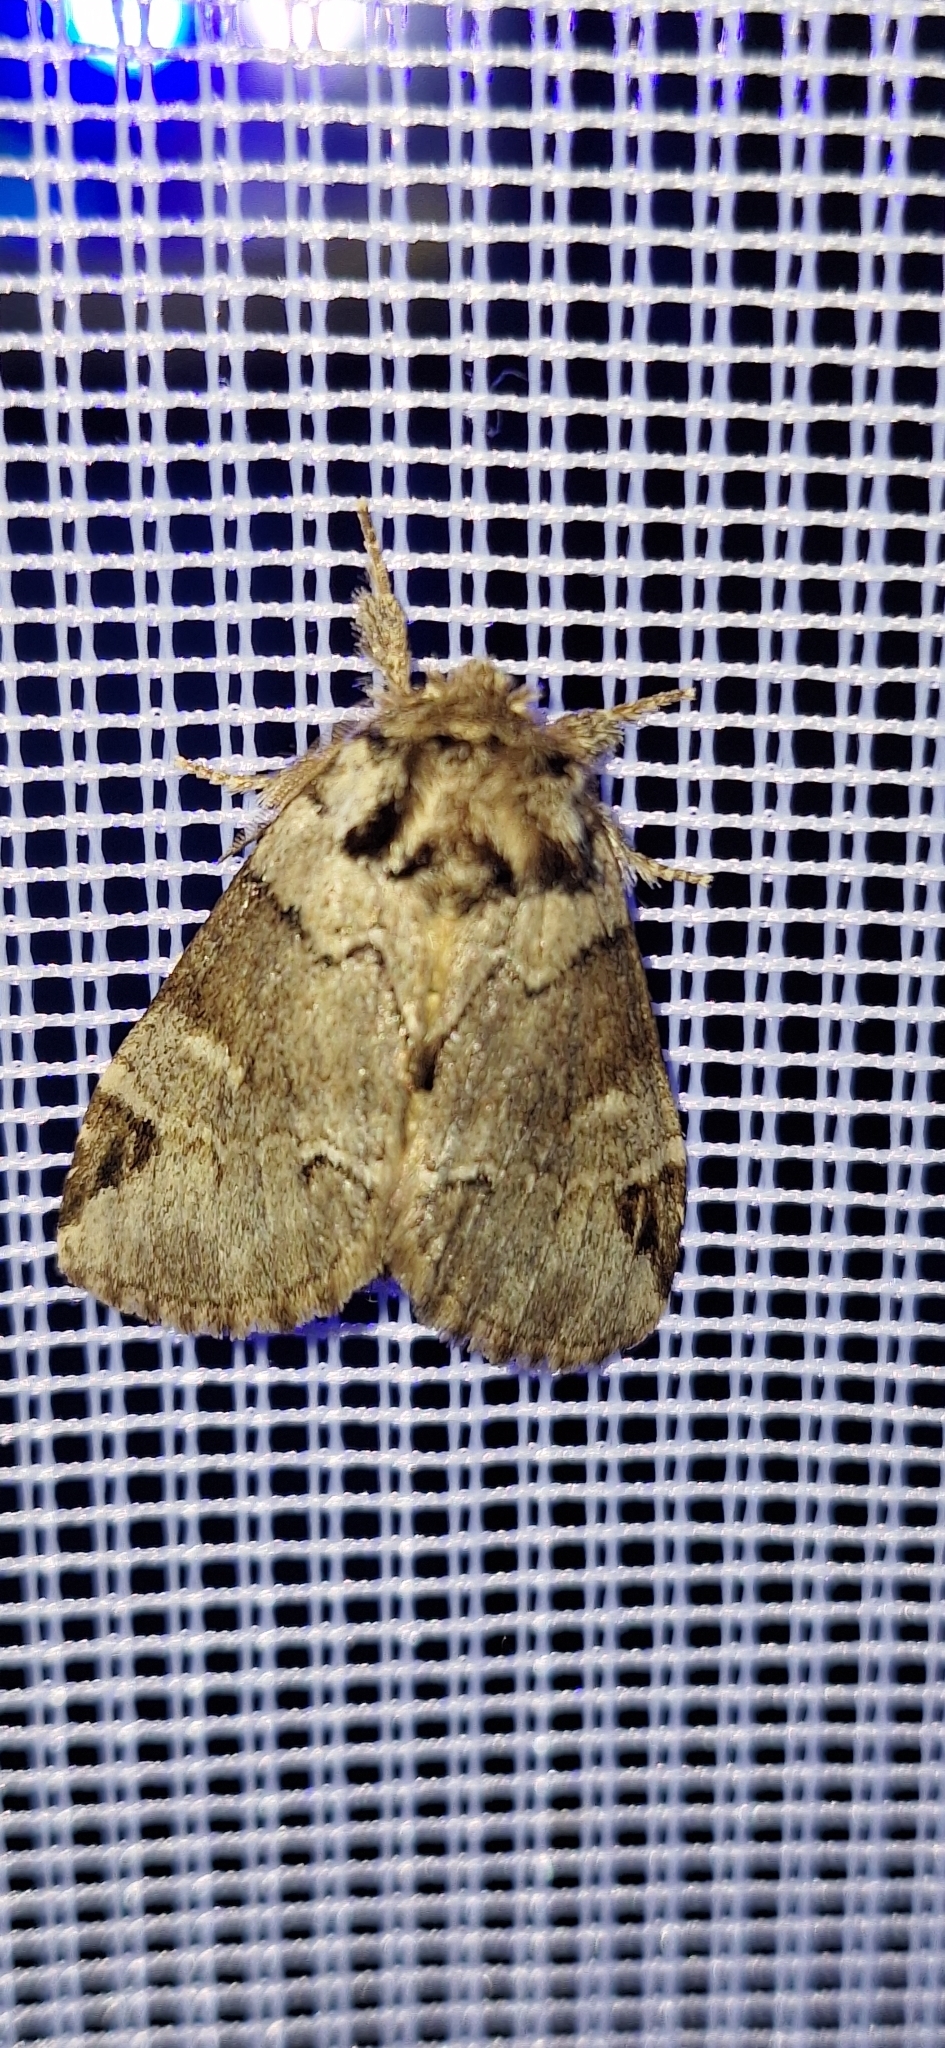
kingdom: Animalia
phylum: Arthropoda
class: Insecta
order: Lepidoptera
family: Notodontidae
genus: Drymonia
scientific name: Drymonia obliterata
